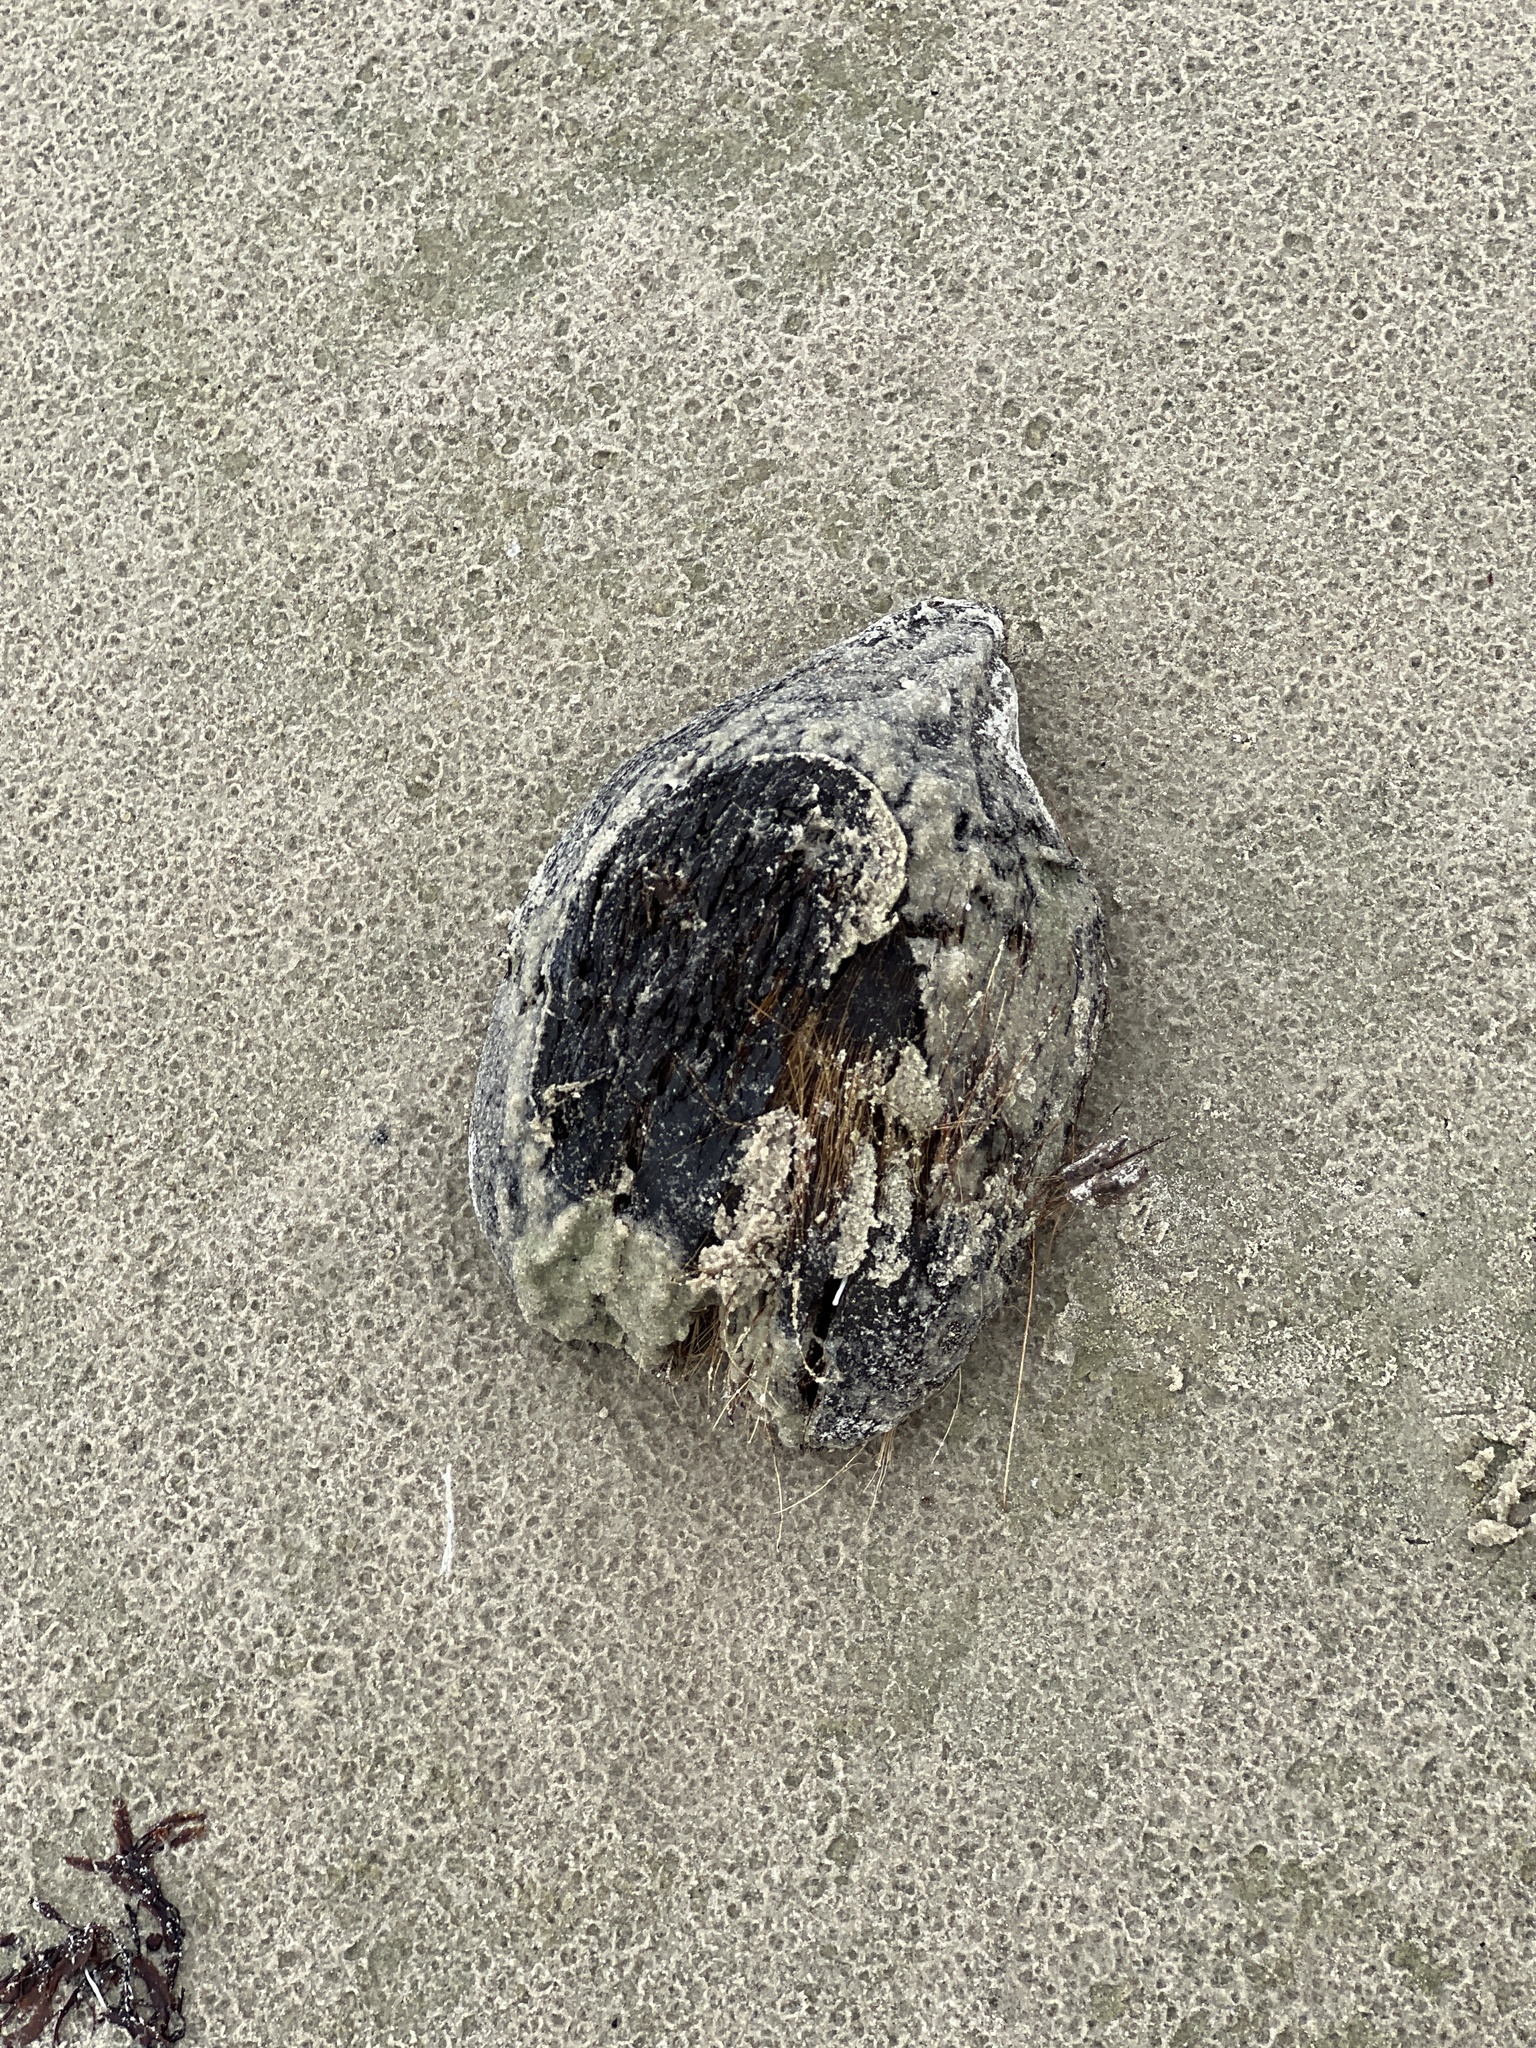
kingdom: Plantae
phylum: Tracheophyta
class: Liliopsida
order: Arecales
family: Arecaceae
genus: Cocos
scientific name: Cocos nucifera
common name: Coconut palm
